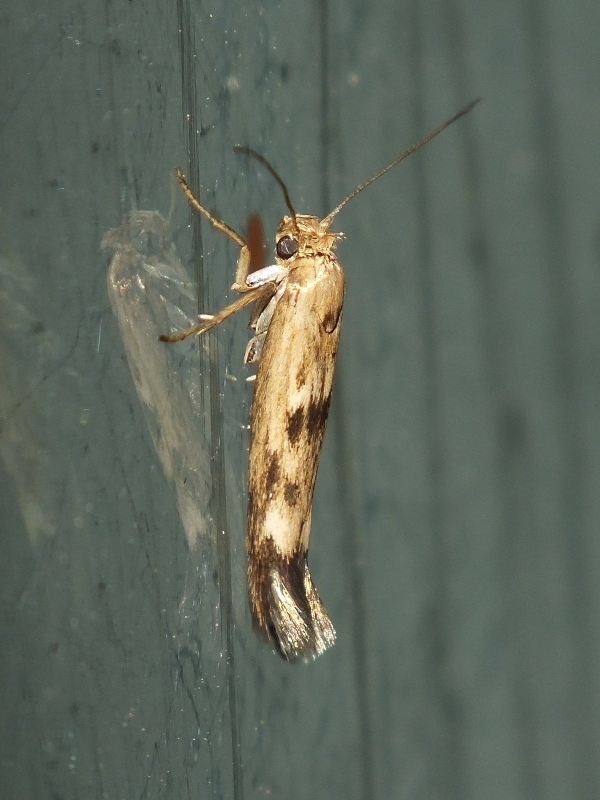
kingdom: Animalia
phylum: Arthropoda
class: Insecta
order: Lepidoptera
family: Scythrididae
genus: Scythris
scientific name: Scythris limbella
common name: Goosefoot owlet
